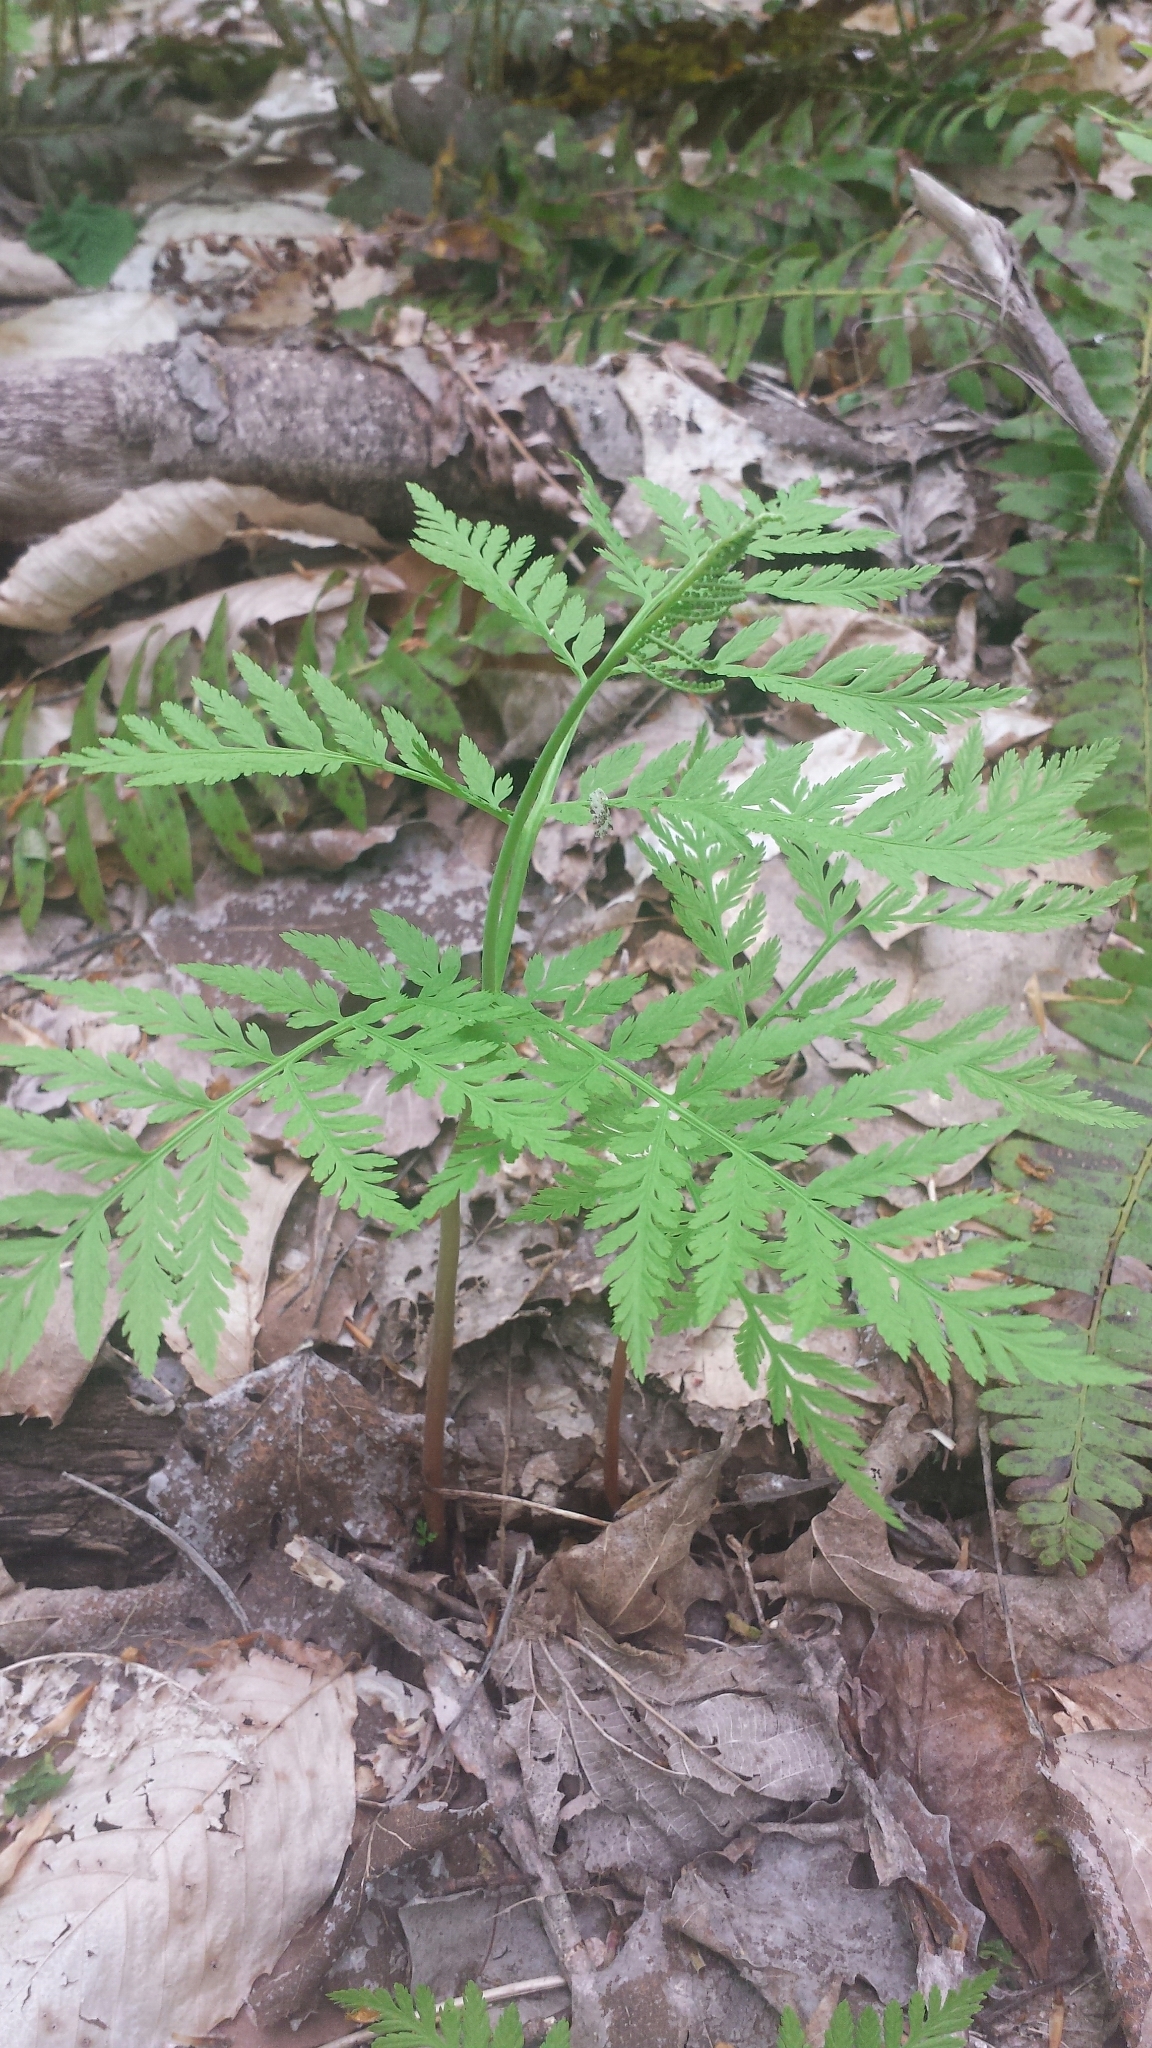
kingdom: Plantae
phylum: Tracheophyta
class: Polypodiopsida
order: Ophioglossales
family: Ophioglossaceae
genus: Botrypus
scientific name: Botrypus virginianus
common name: Common grapefern
